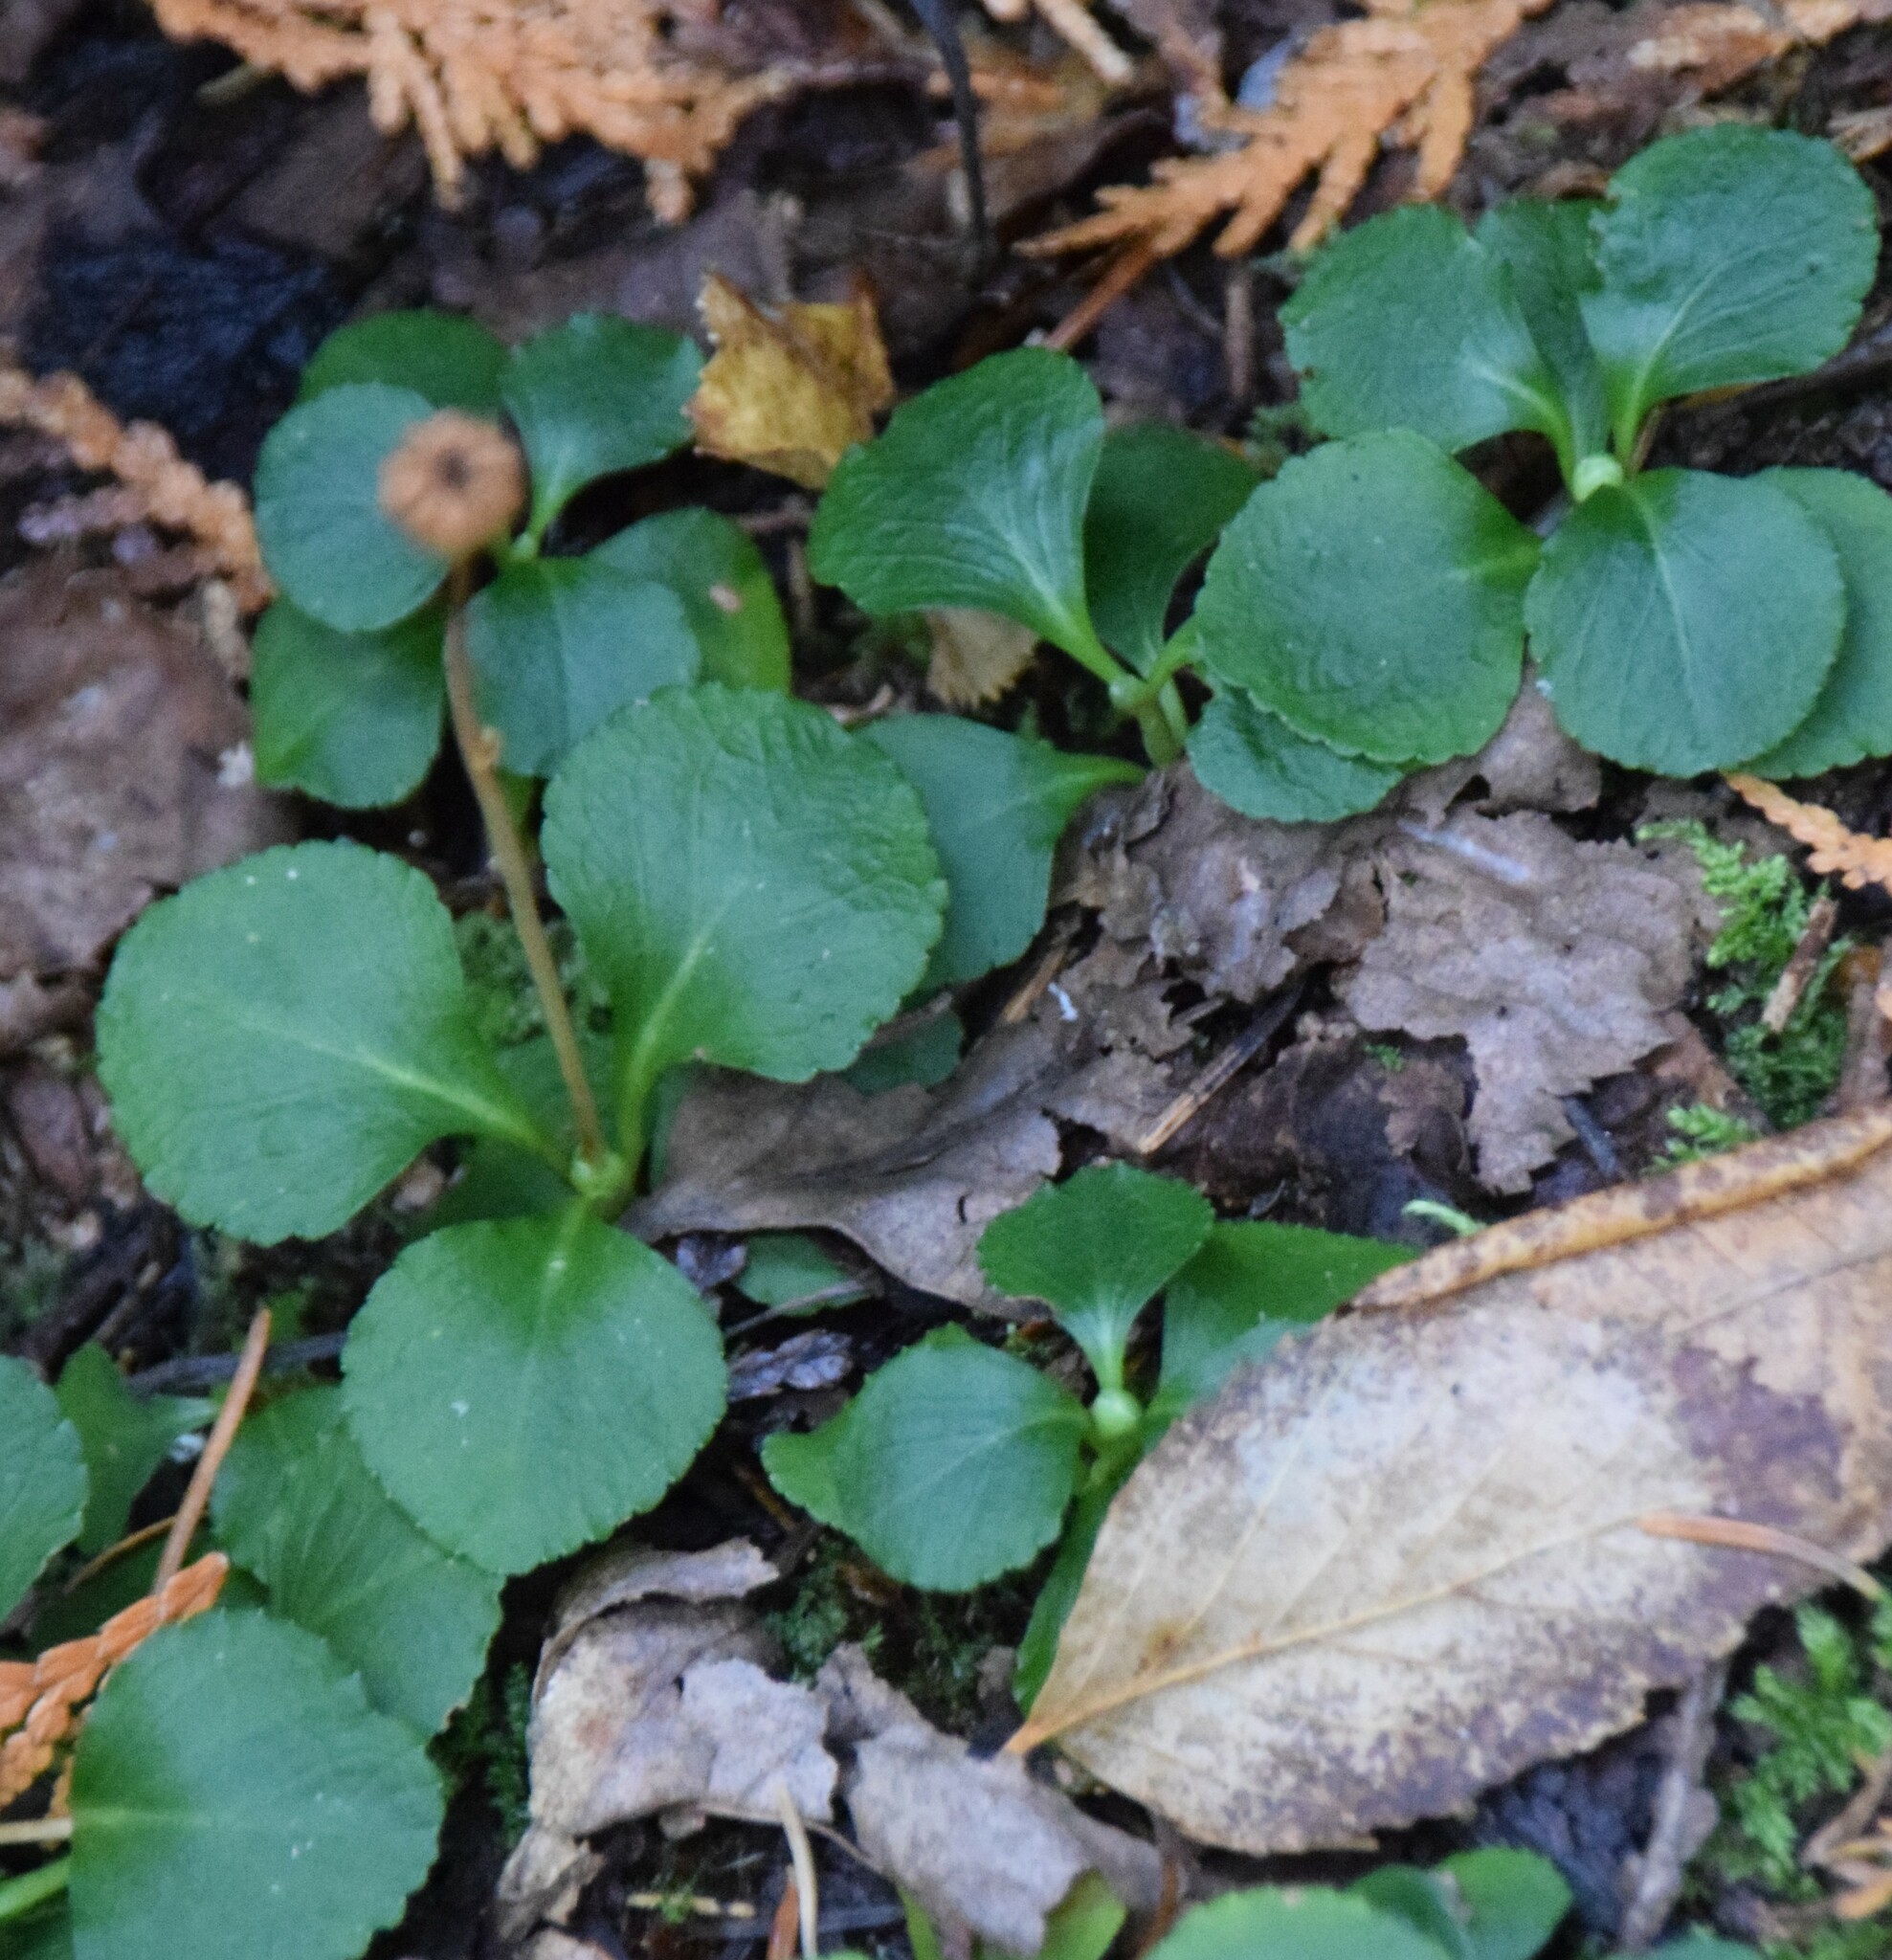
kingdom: Plantae
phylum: Tracheophyta
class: Magnoliopsida
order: Ericales
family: Ericaceae
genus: Moneses
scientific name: Moneses uniflora
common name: One-flowered wintergreen
